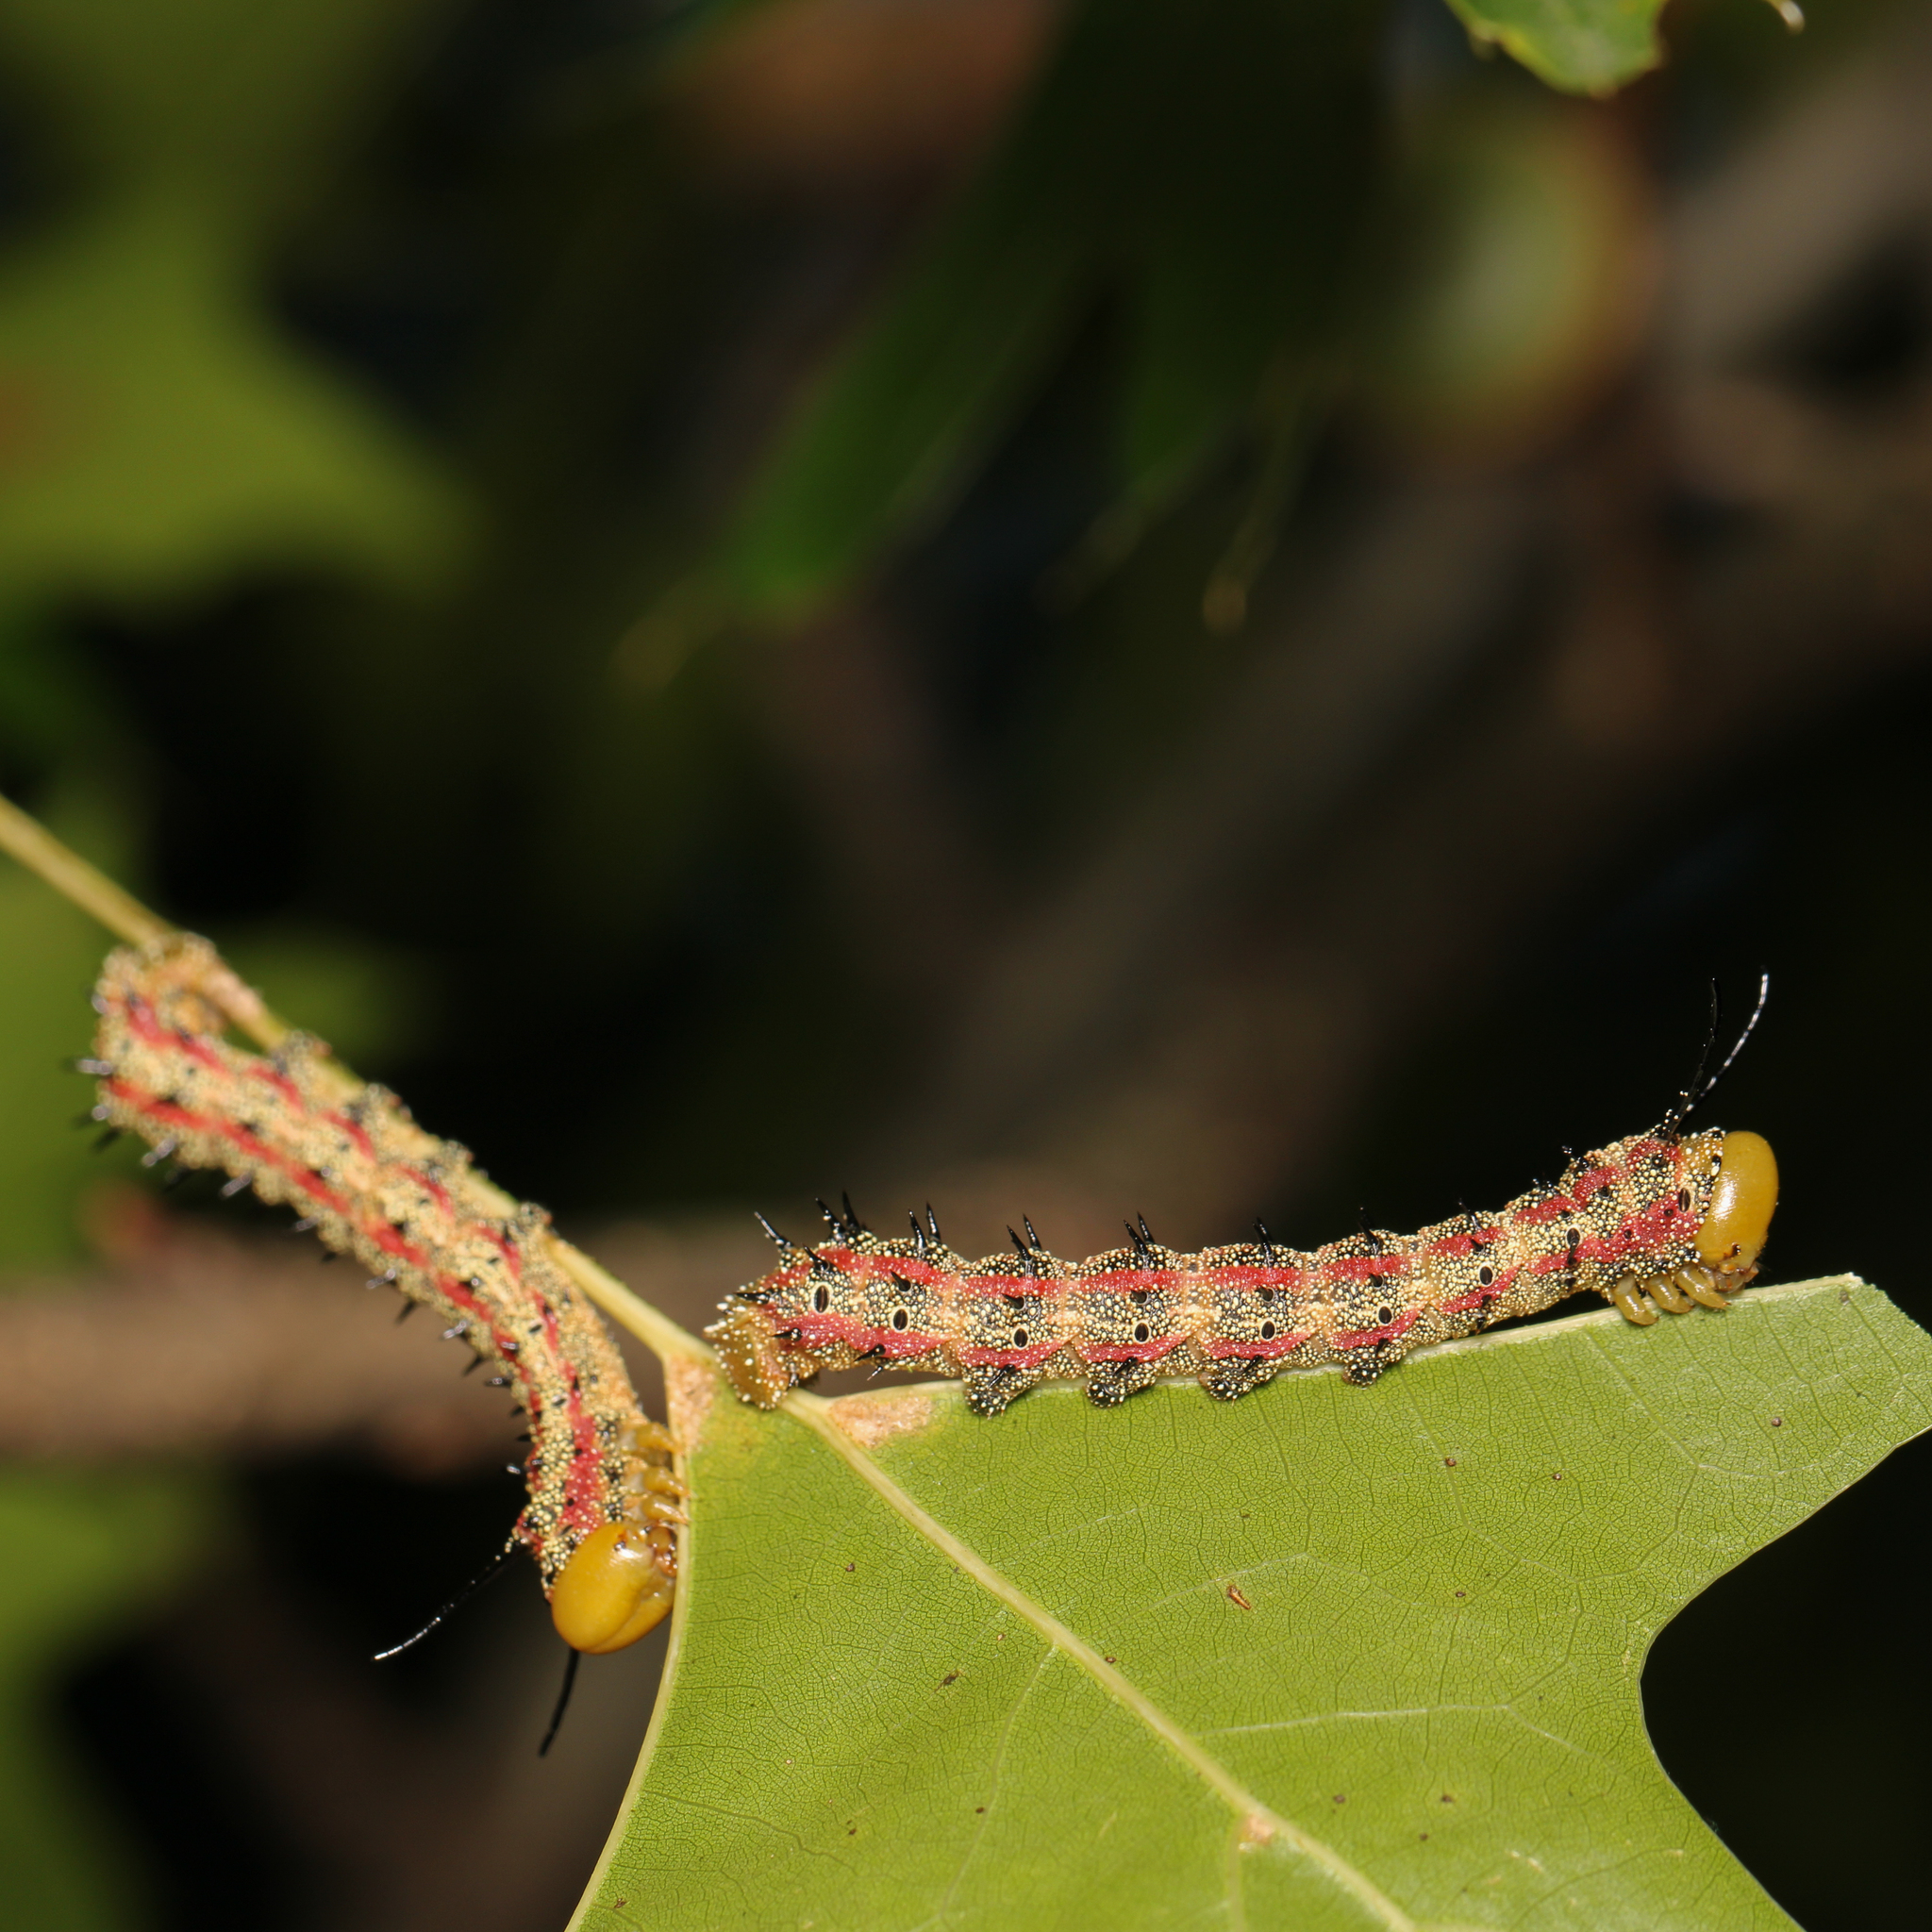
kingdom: Animalia
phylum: Arthropoda
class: Insecta
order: Lepidoptera
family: Saturniidae
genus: Anisota
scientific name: Anisota virginiensis
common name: Pink striped oakworm moth
